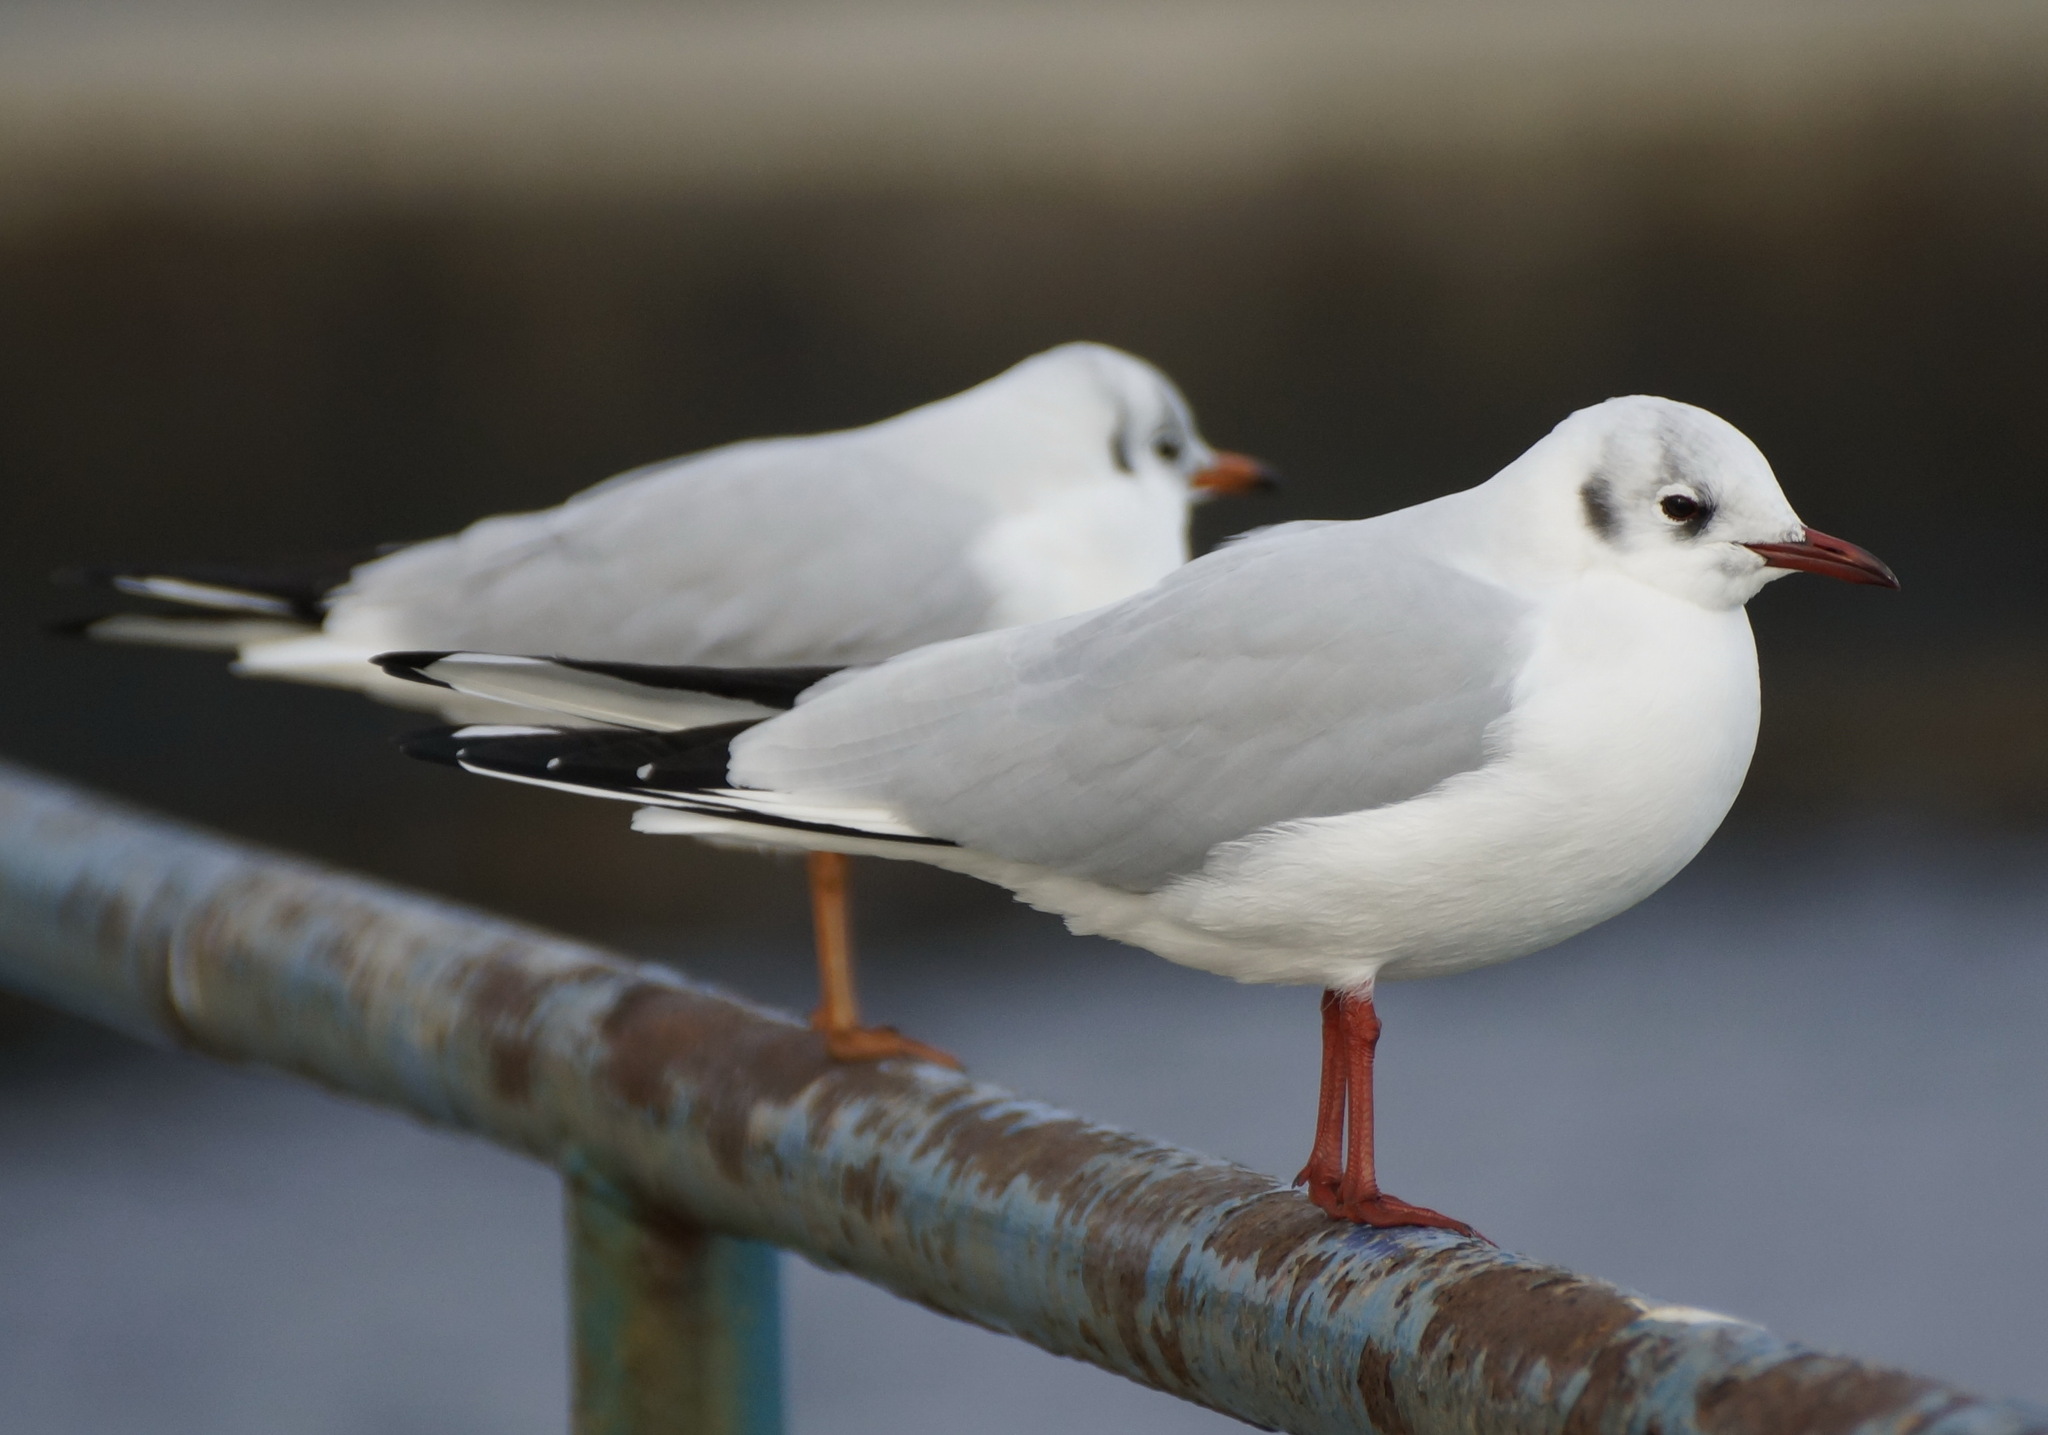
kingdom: Animalia
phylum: Chordata
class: Aves
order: Charadriiformes
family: Laridae
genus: Chroicocephalus
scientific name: Chroicocephalus ridibundus
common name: Black-headed gull
